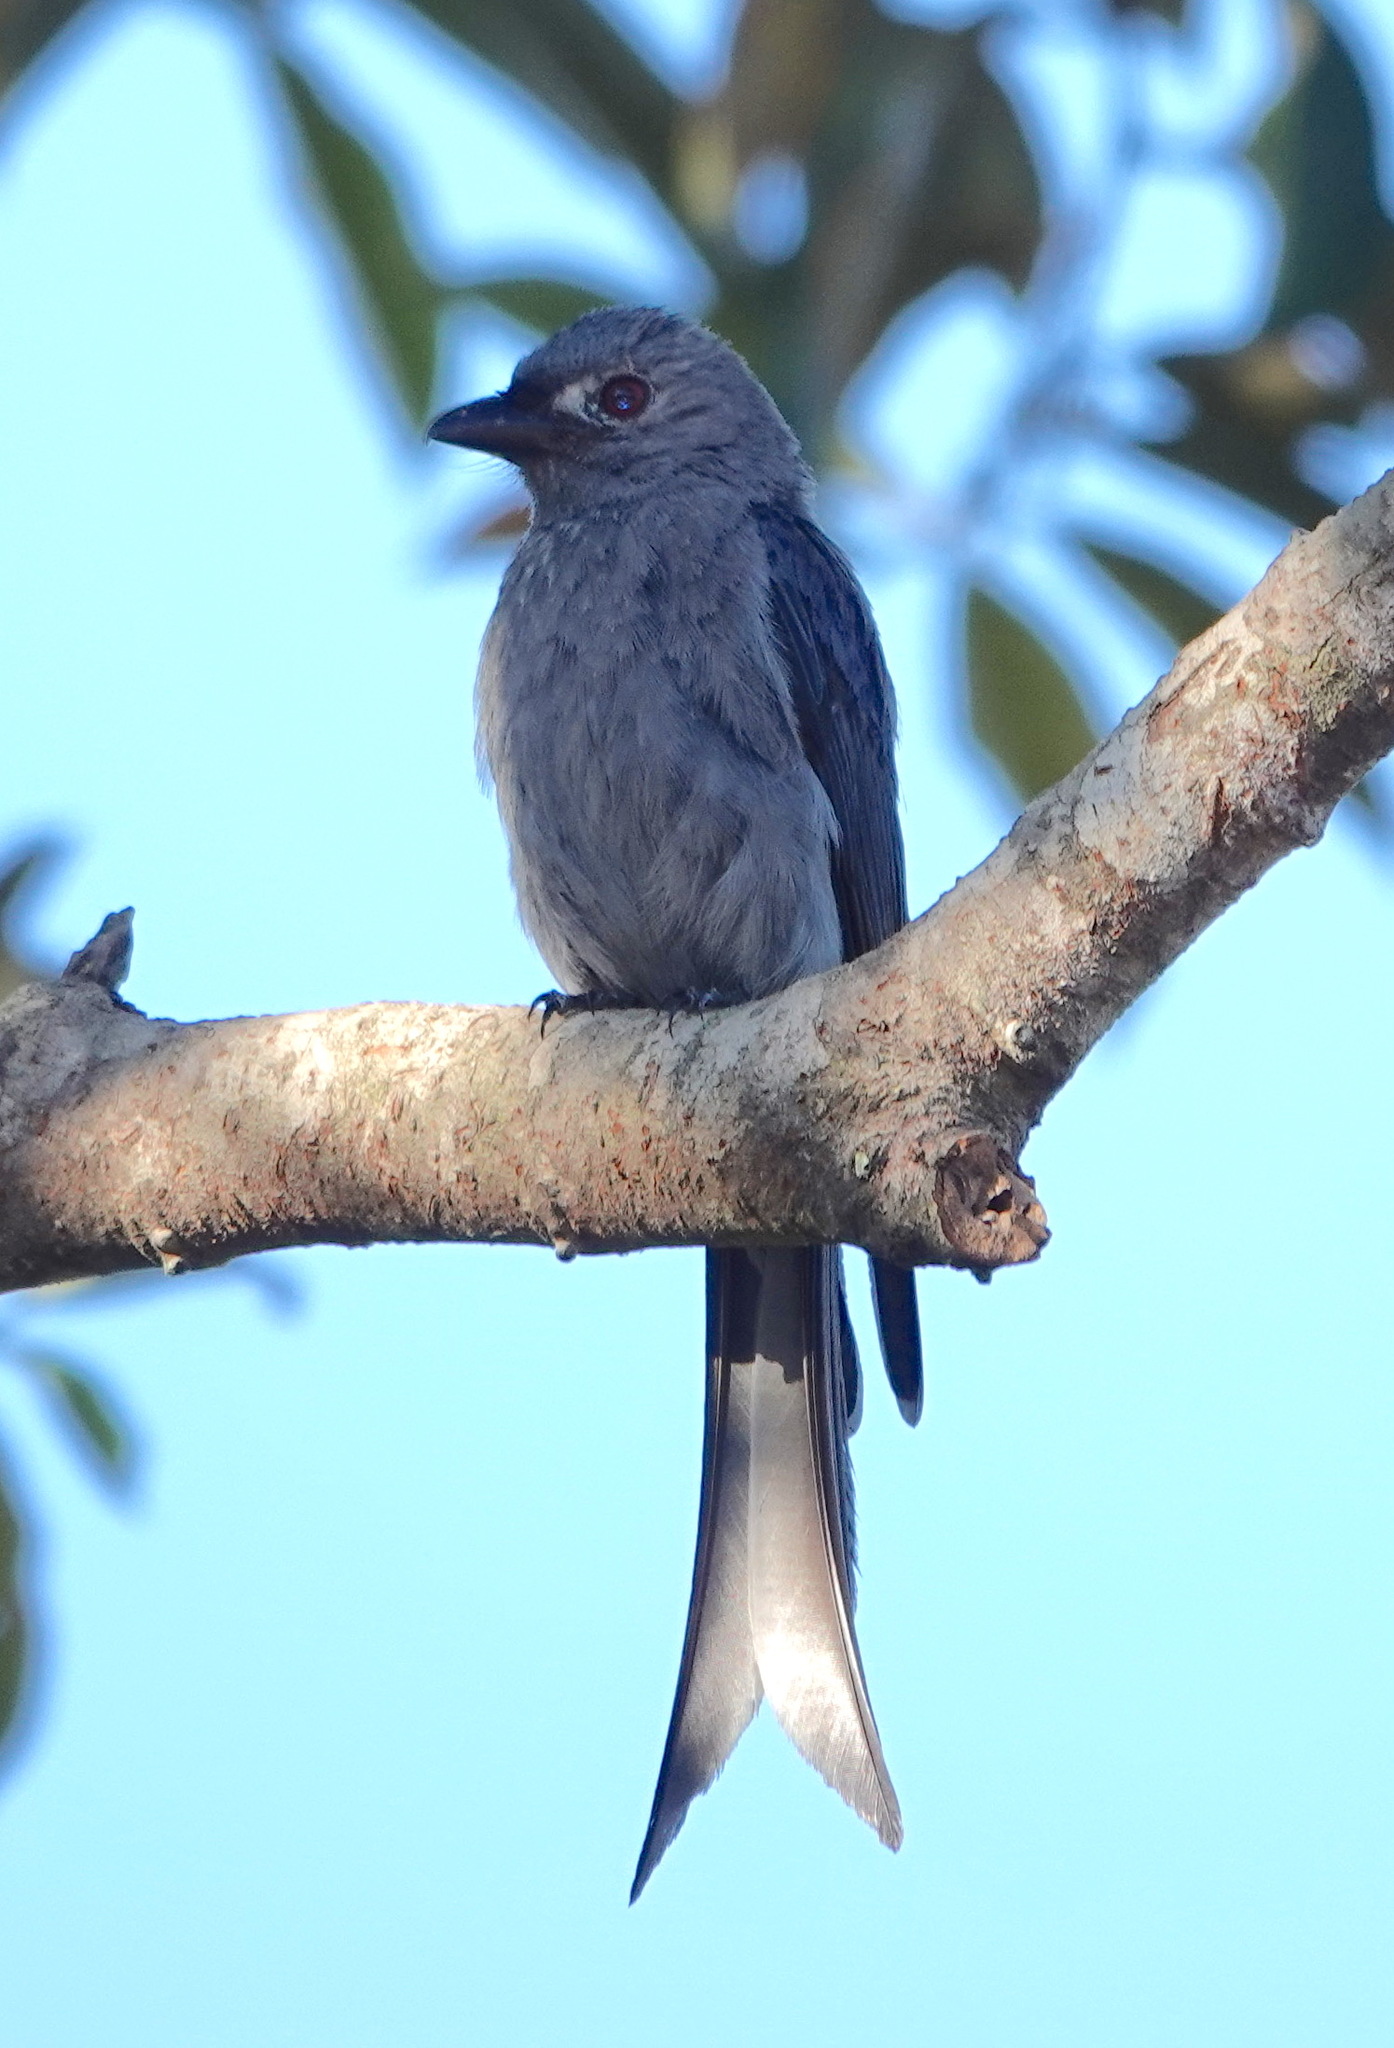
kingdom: Animalia
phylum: Chordata
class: Aves
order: Passeriformes
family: Dicruridae
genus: Dicrurus
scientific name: Dicrurus leucophaeus
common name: Ashy drongo
